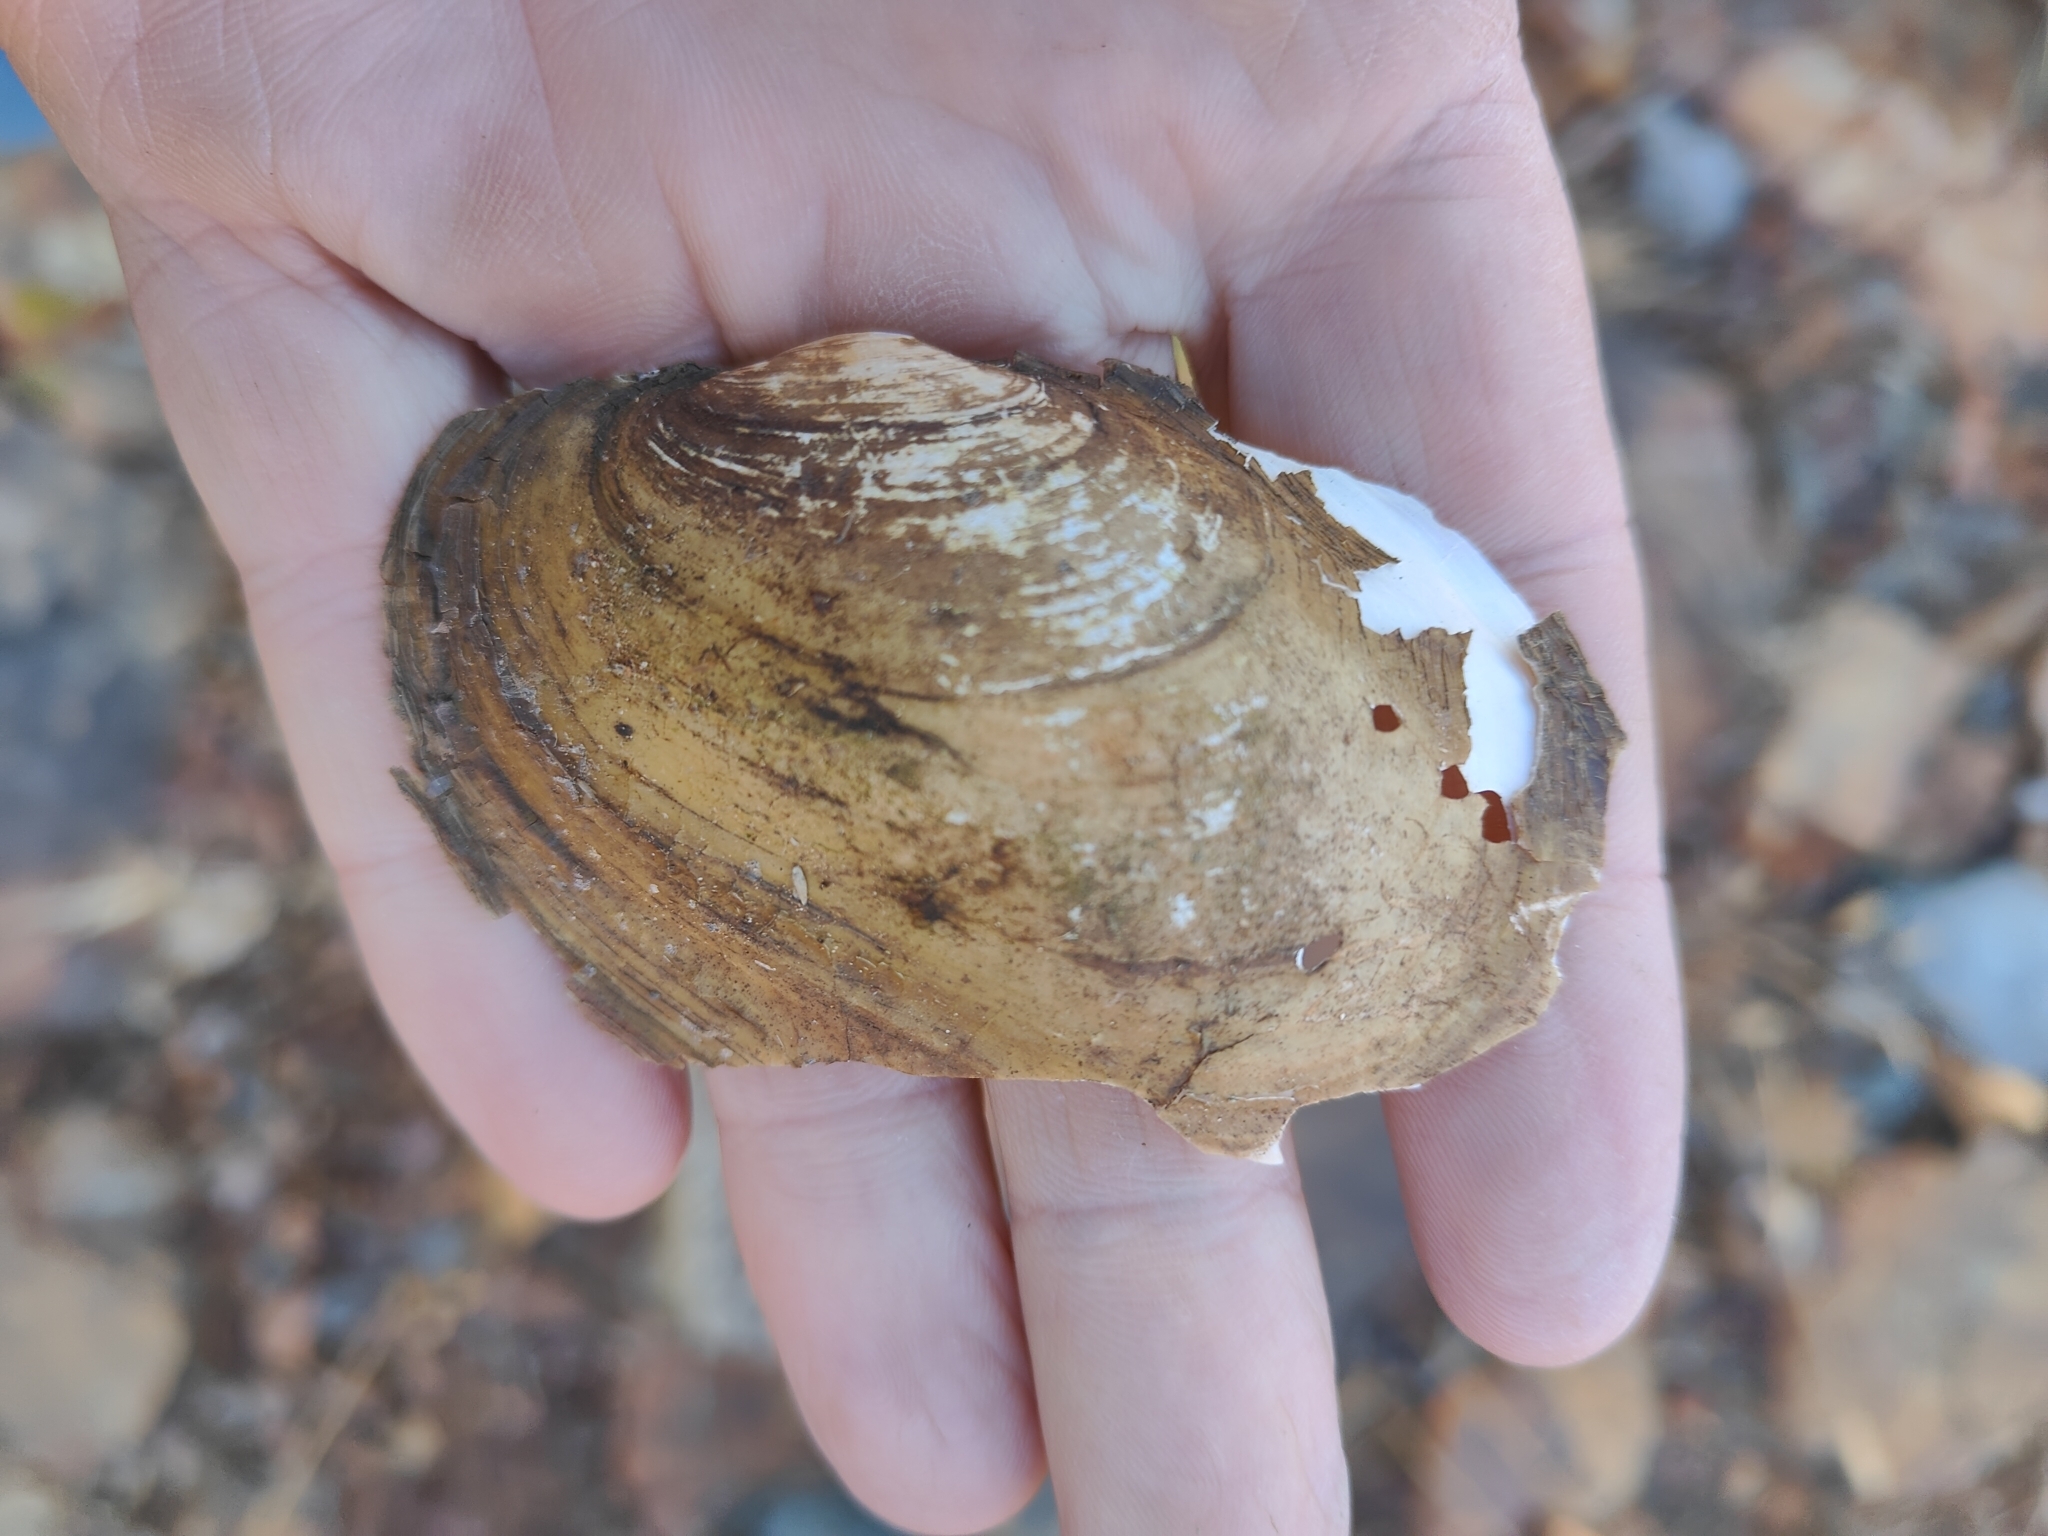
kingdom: Animalia
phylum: Mollusca
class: Bivalvia
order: Unionida
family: Unionidae
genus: Potamilus
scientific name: Potamilus fragilis
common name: Fragile papershell
